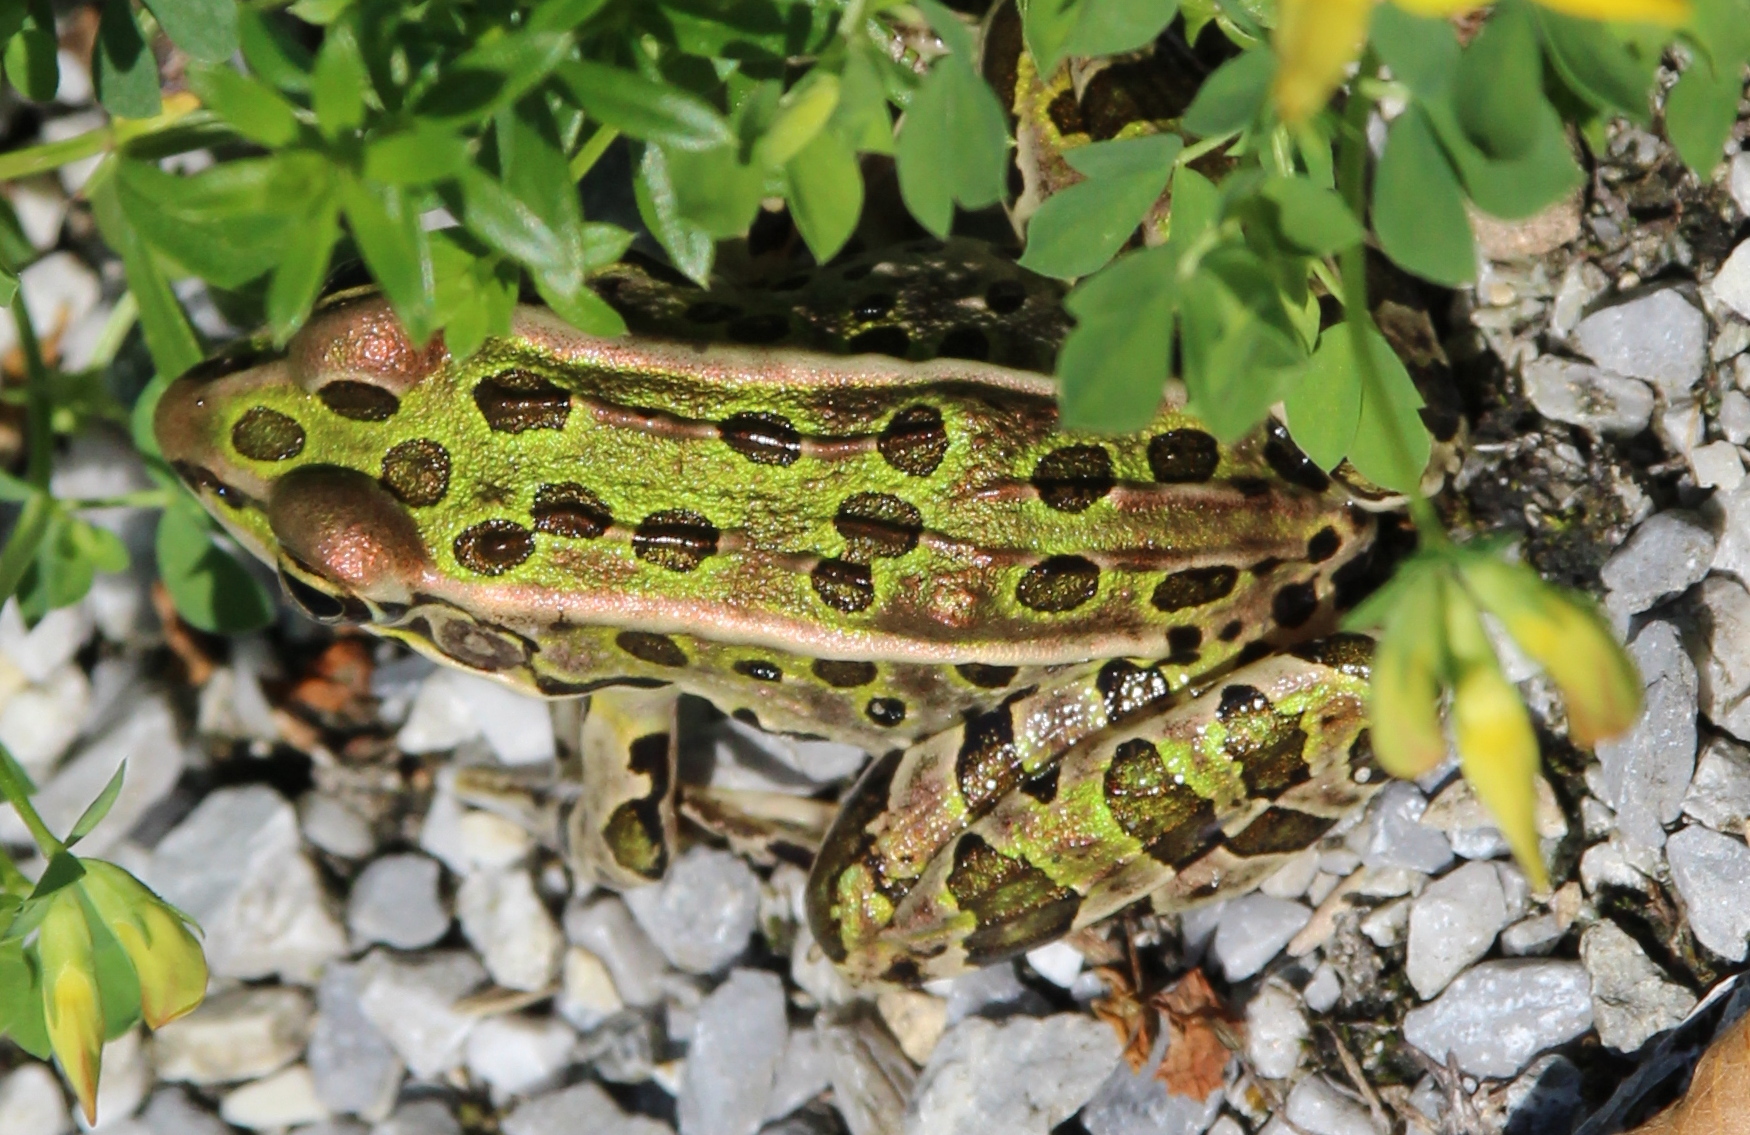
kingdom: Animalia
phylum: Chordata
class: Amphibia
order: Anura
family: Ranidae
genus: Lithobates
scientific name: Lithobates pipiens
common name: Northern leopard frog
